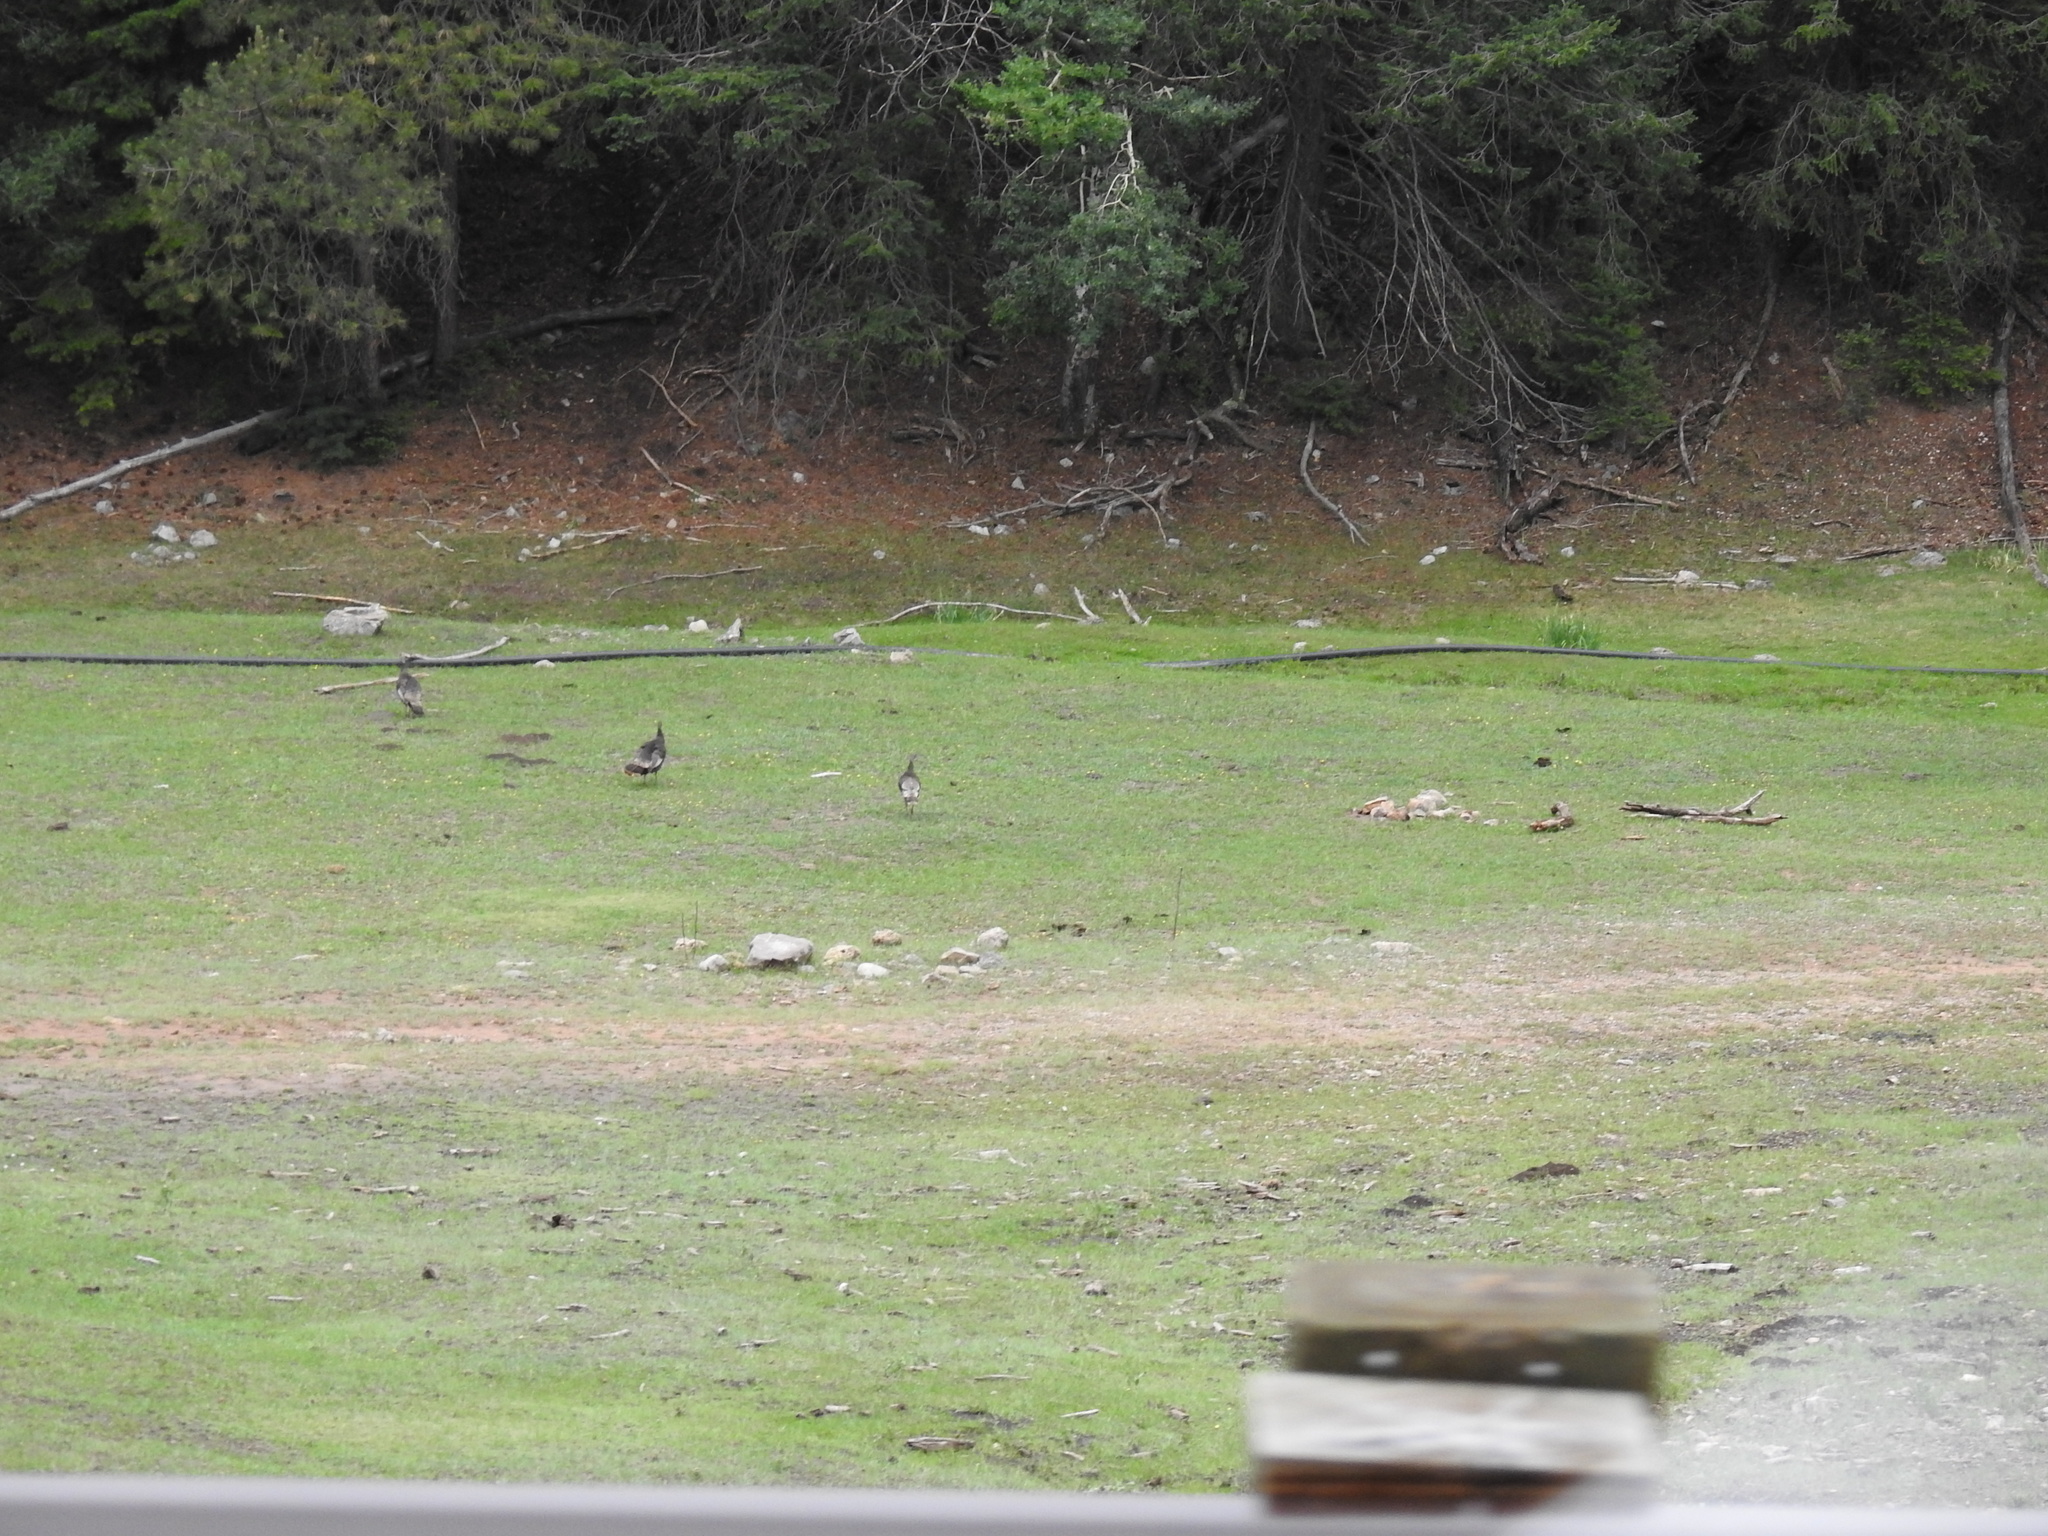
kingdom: Animalia
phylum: Chordata
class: Aves
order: Galliformes
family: Phasianidae
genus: Meleagris
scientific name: Meleagris gallopavo
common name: Wild turkey
